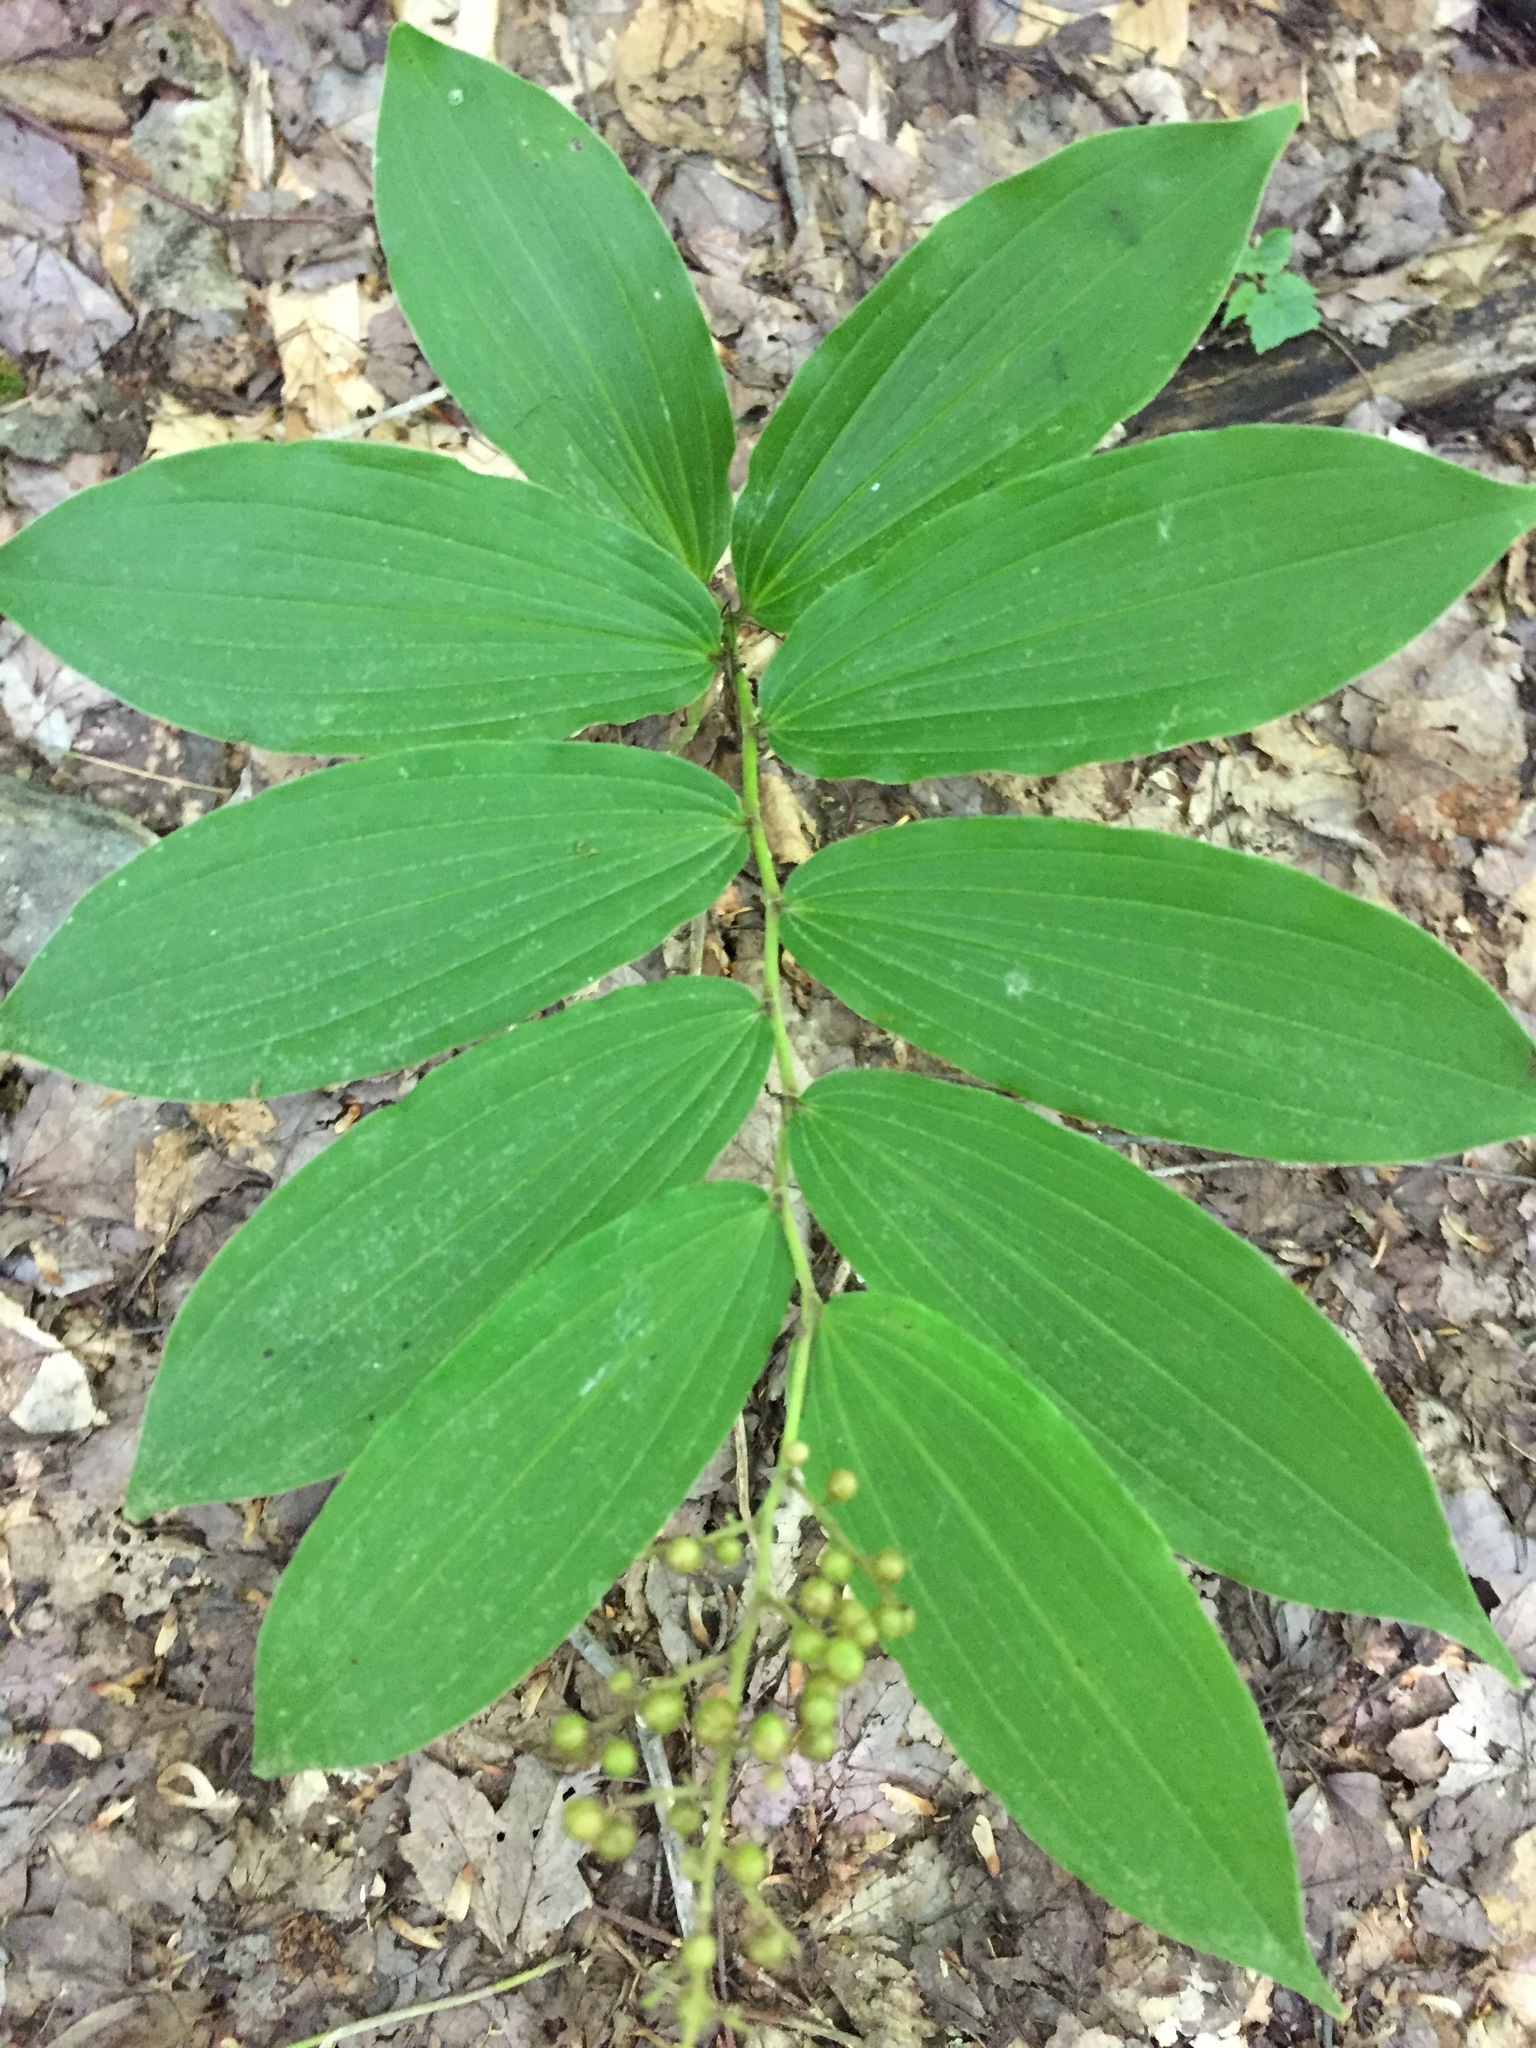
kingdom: Plantae
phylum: Tracheophyta
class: Liliopsida
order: Asparagales
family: Asparagaceae
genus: Maianthemum
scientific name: Maianthemum racemosum
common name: False spikenard
